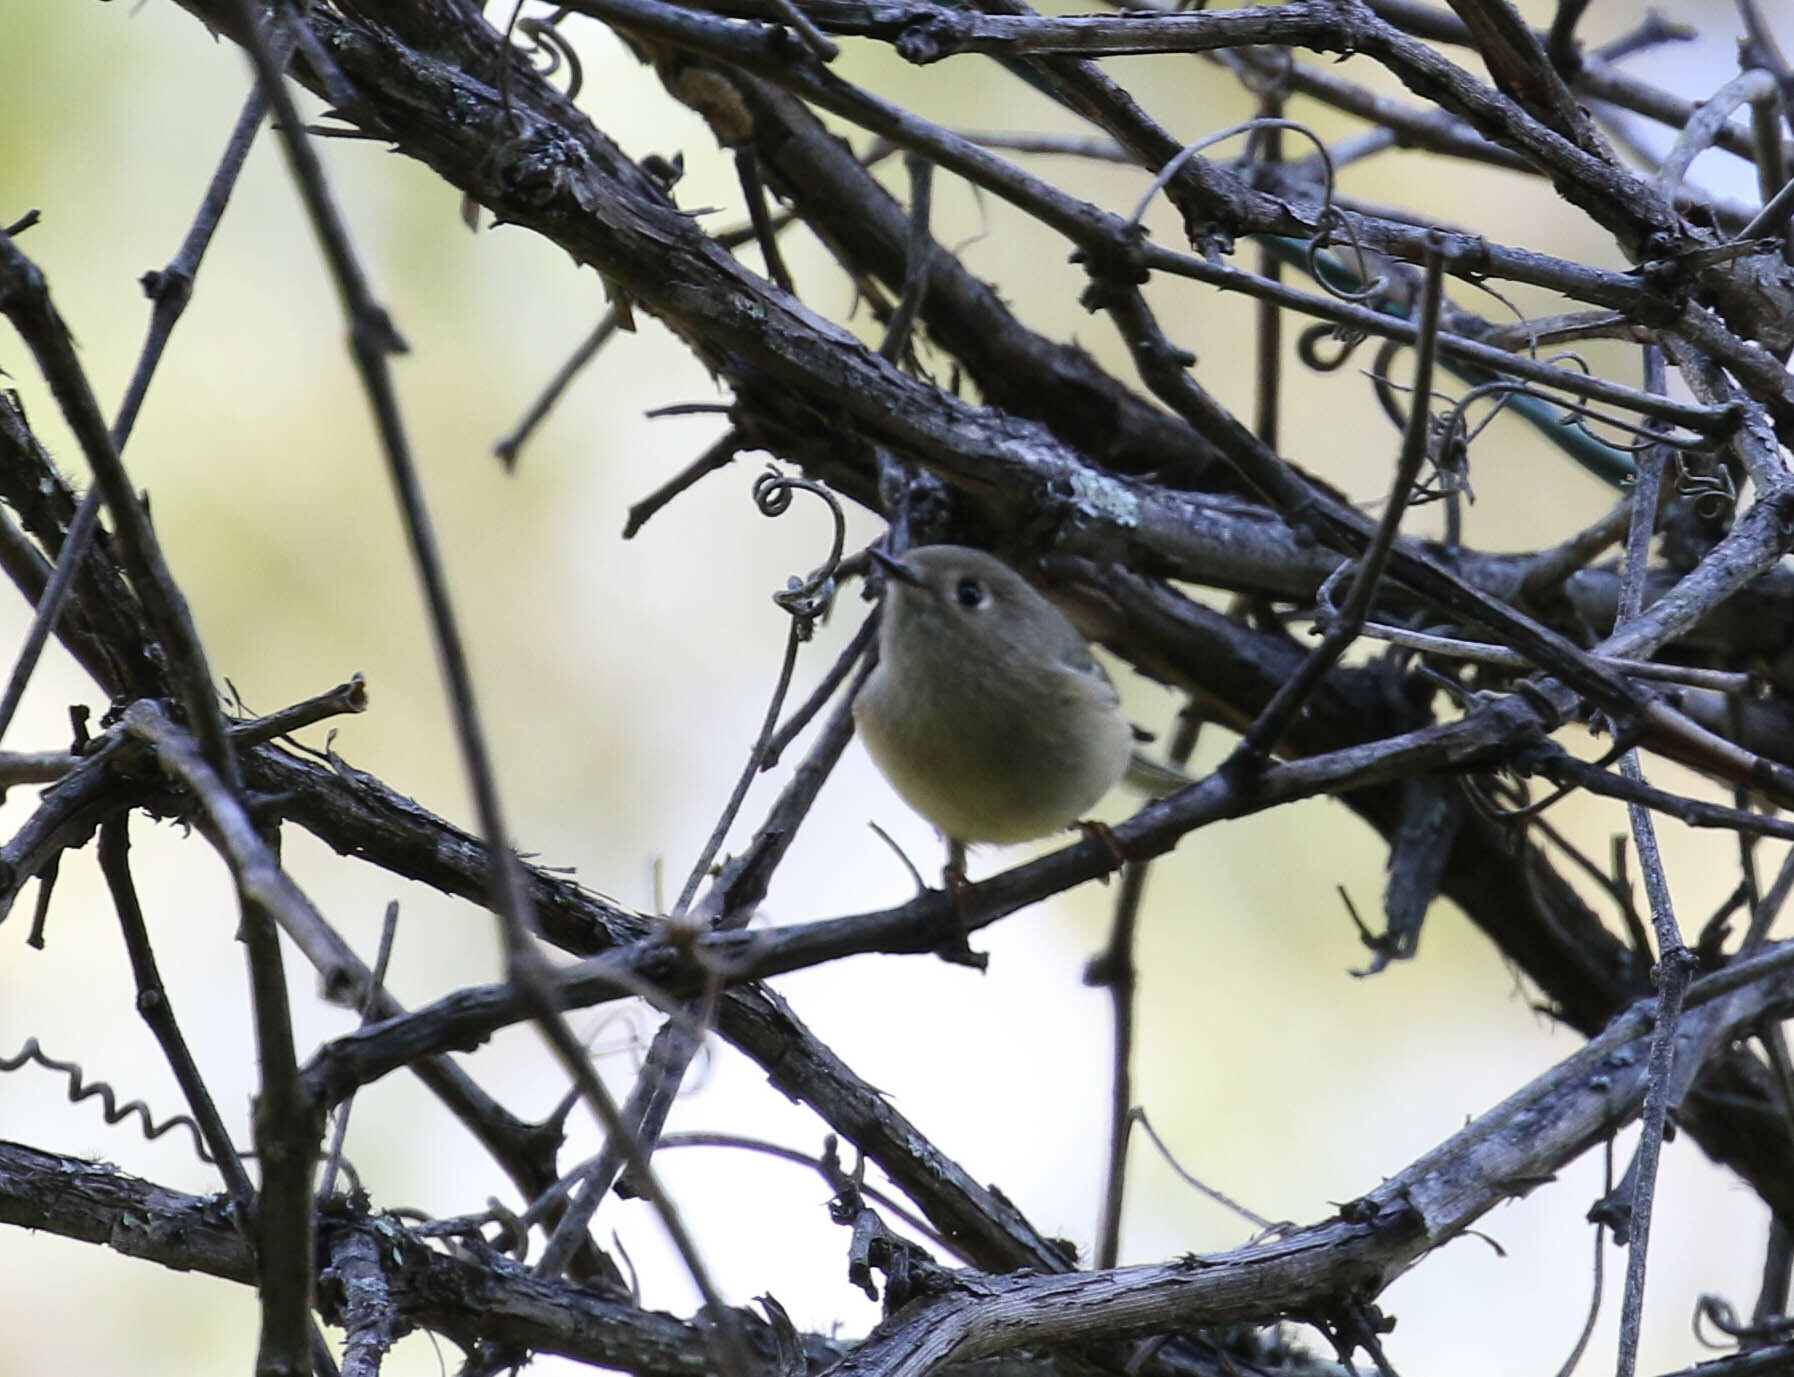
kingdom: Animalia
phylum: Chordata
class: Aves
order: Passeriformes
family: Regulidae
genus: Regulus
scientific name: Regulus calendula
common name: Ruby-crowned kinglet
